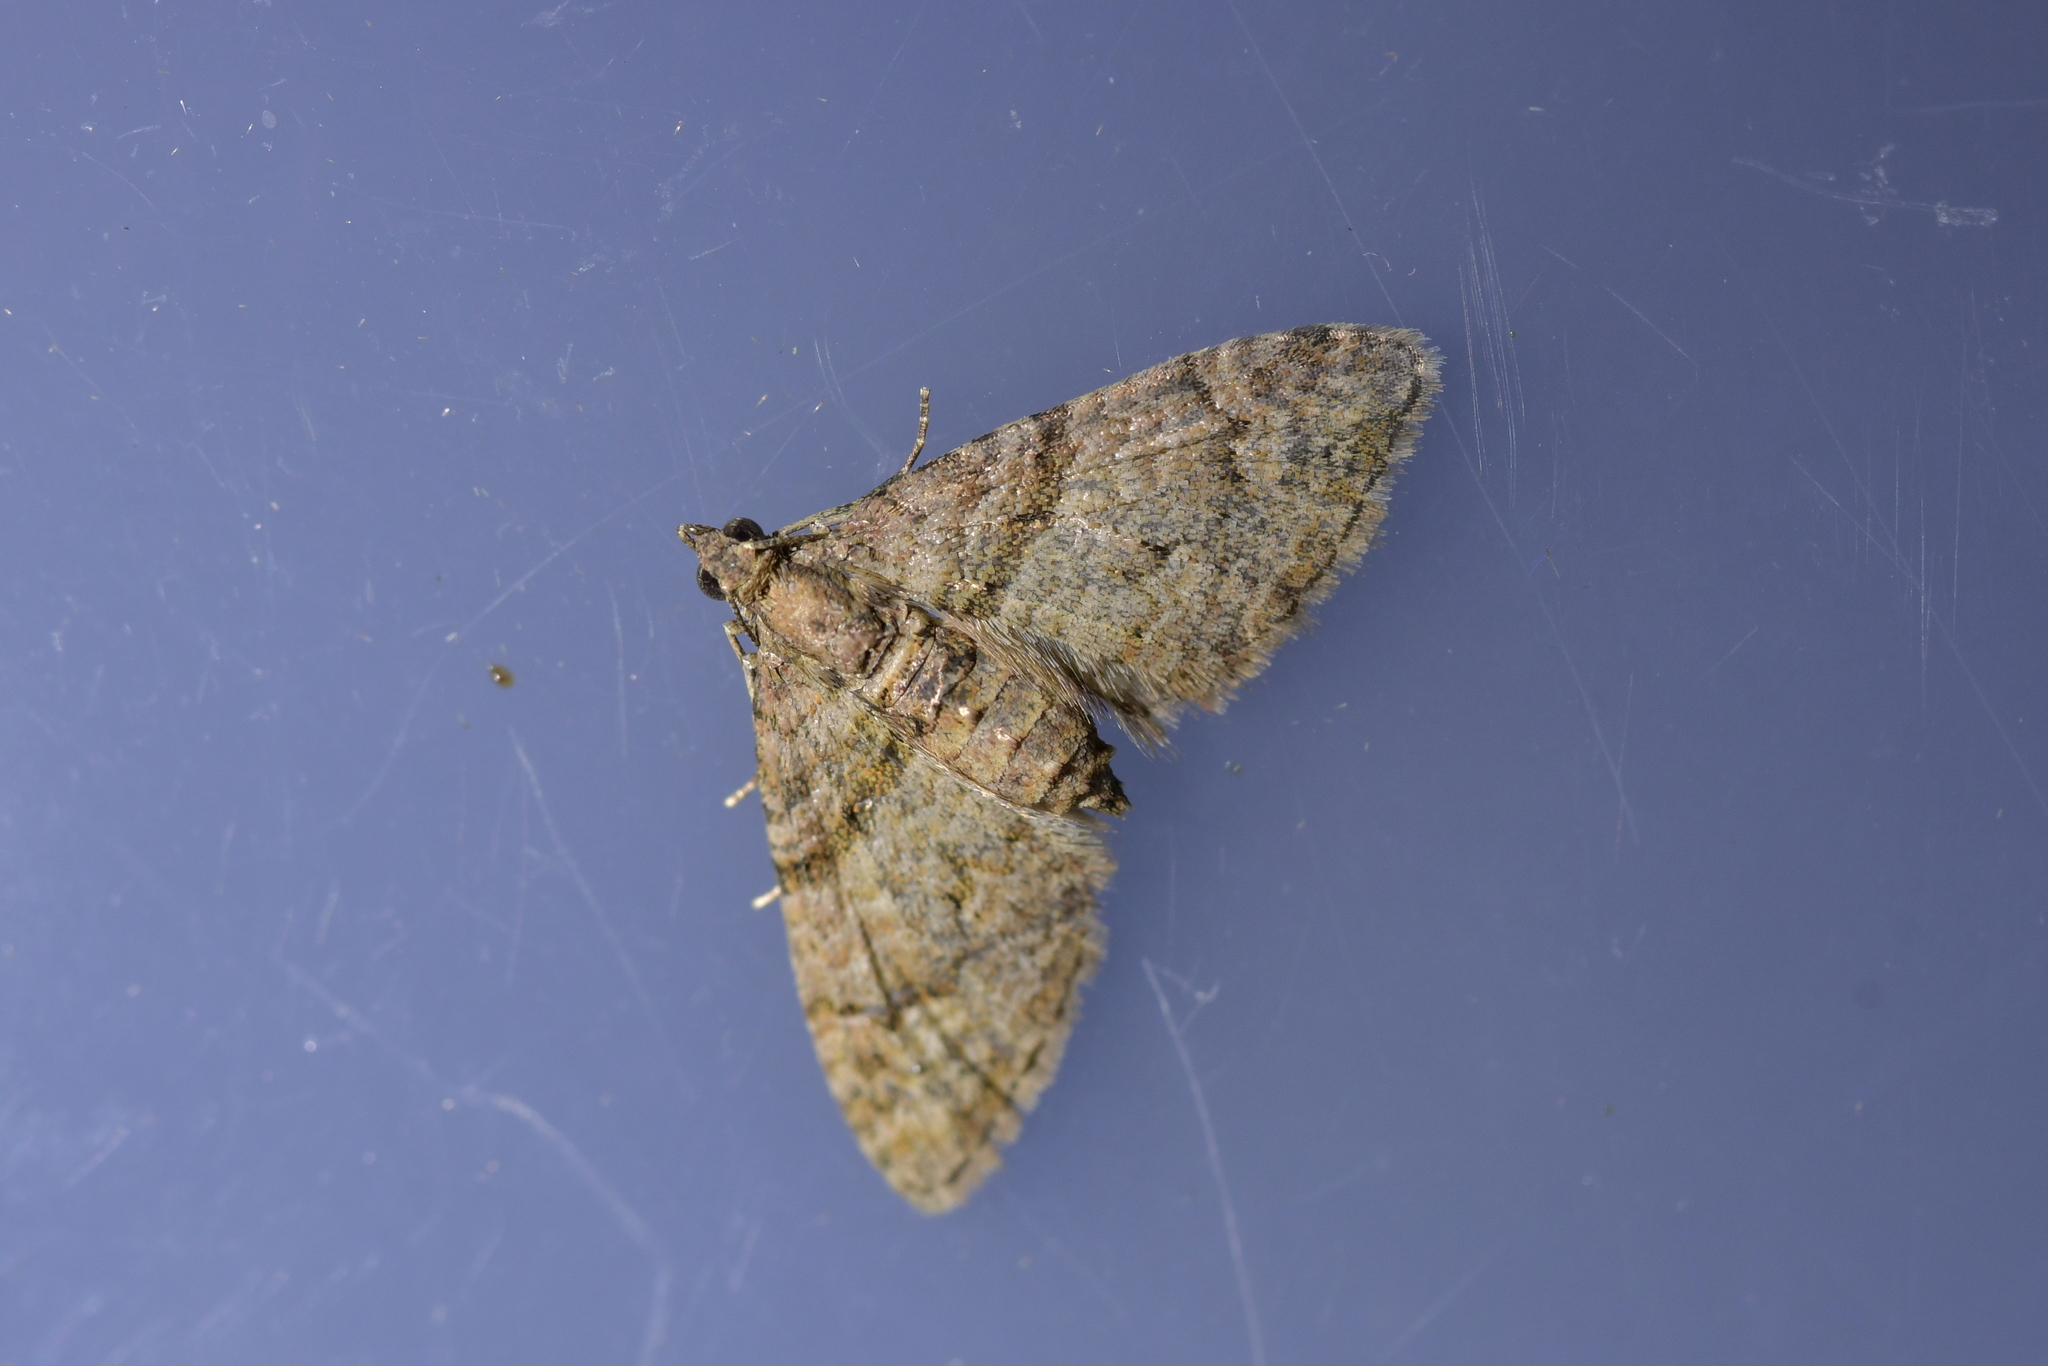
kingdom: Animalia
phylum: Arthropoda
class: Insecta
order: Lepidoptera
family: Geometridae
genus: Phrissogonus
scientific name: Phrissogonus laticostata
